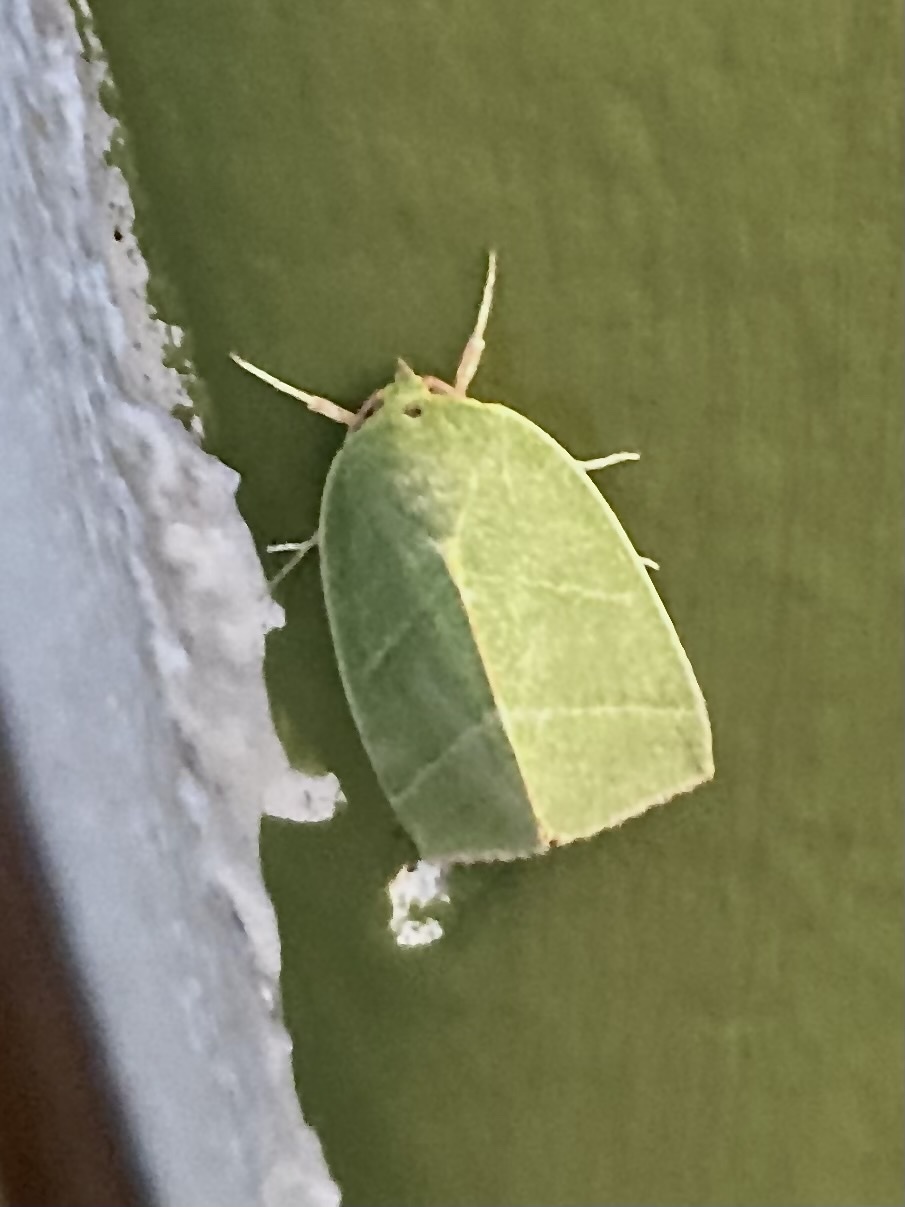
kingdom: Animalia
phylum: Arthropoda
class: Insecta
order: Lepidoptera
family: Nolidae
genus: Bena
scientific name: Bena bicolorana
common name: Scarce silver-lines
